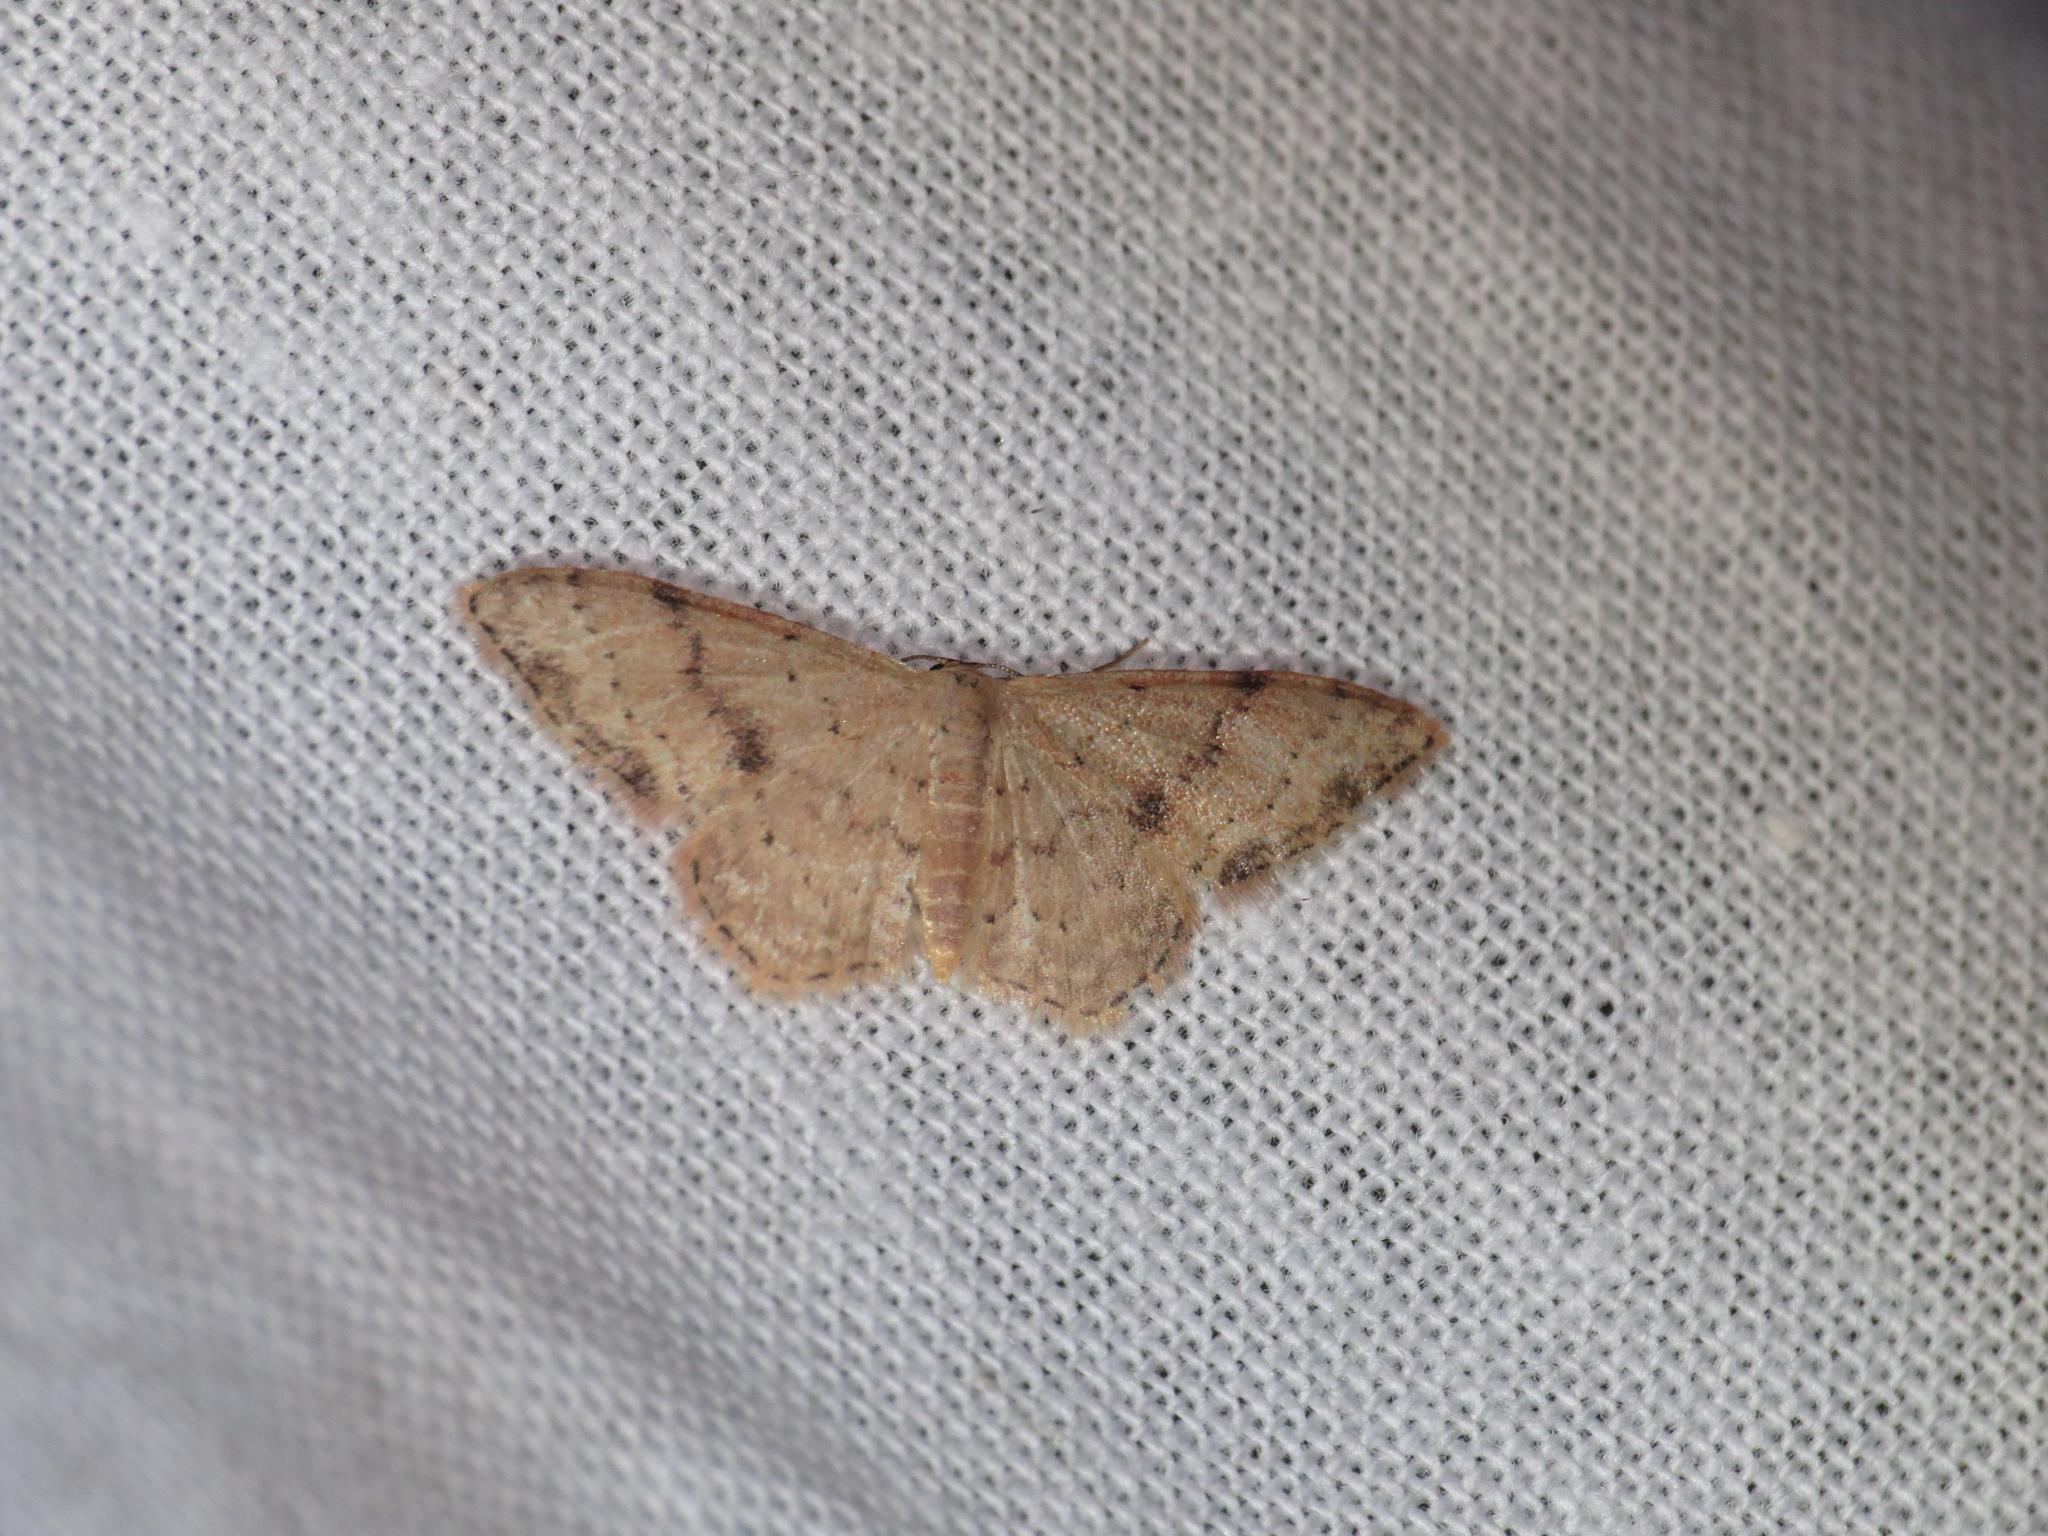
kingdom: Animalia
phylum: Arthropoda
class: Insecta
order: Lepidoptera
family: Geometridae
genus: Idaea
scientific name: Idaea halmaea
